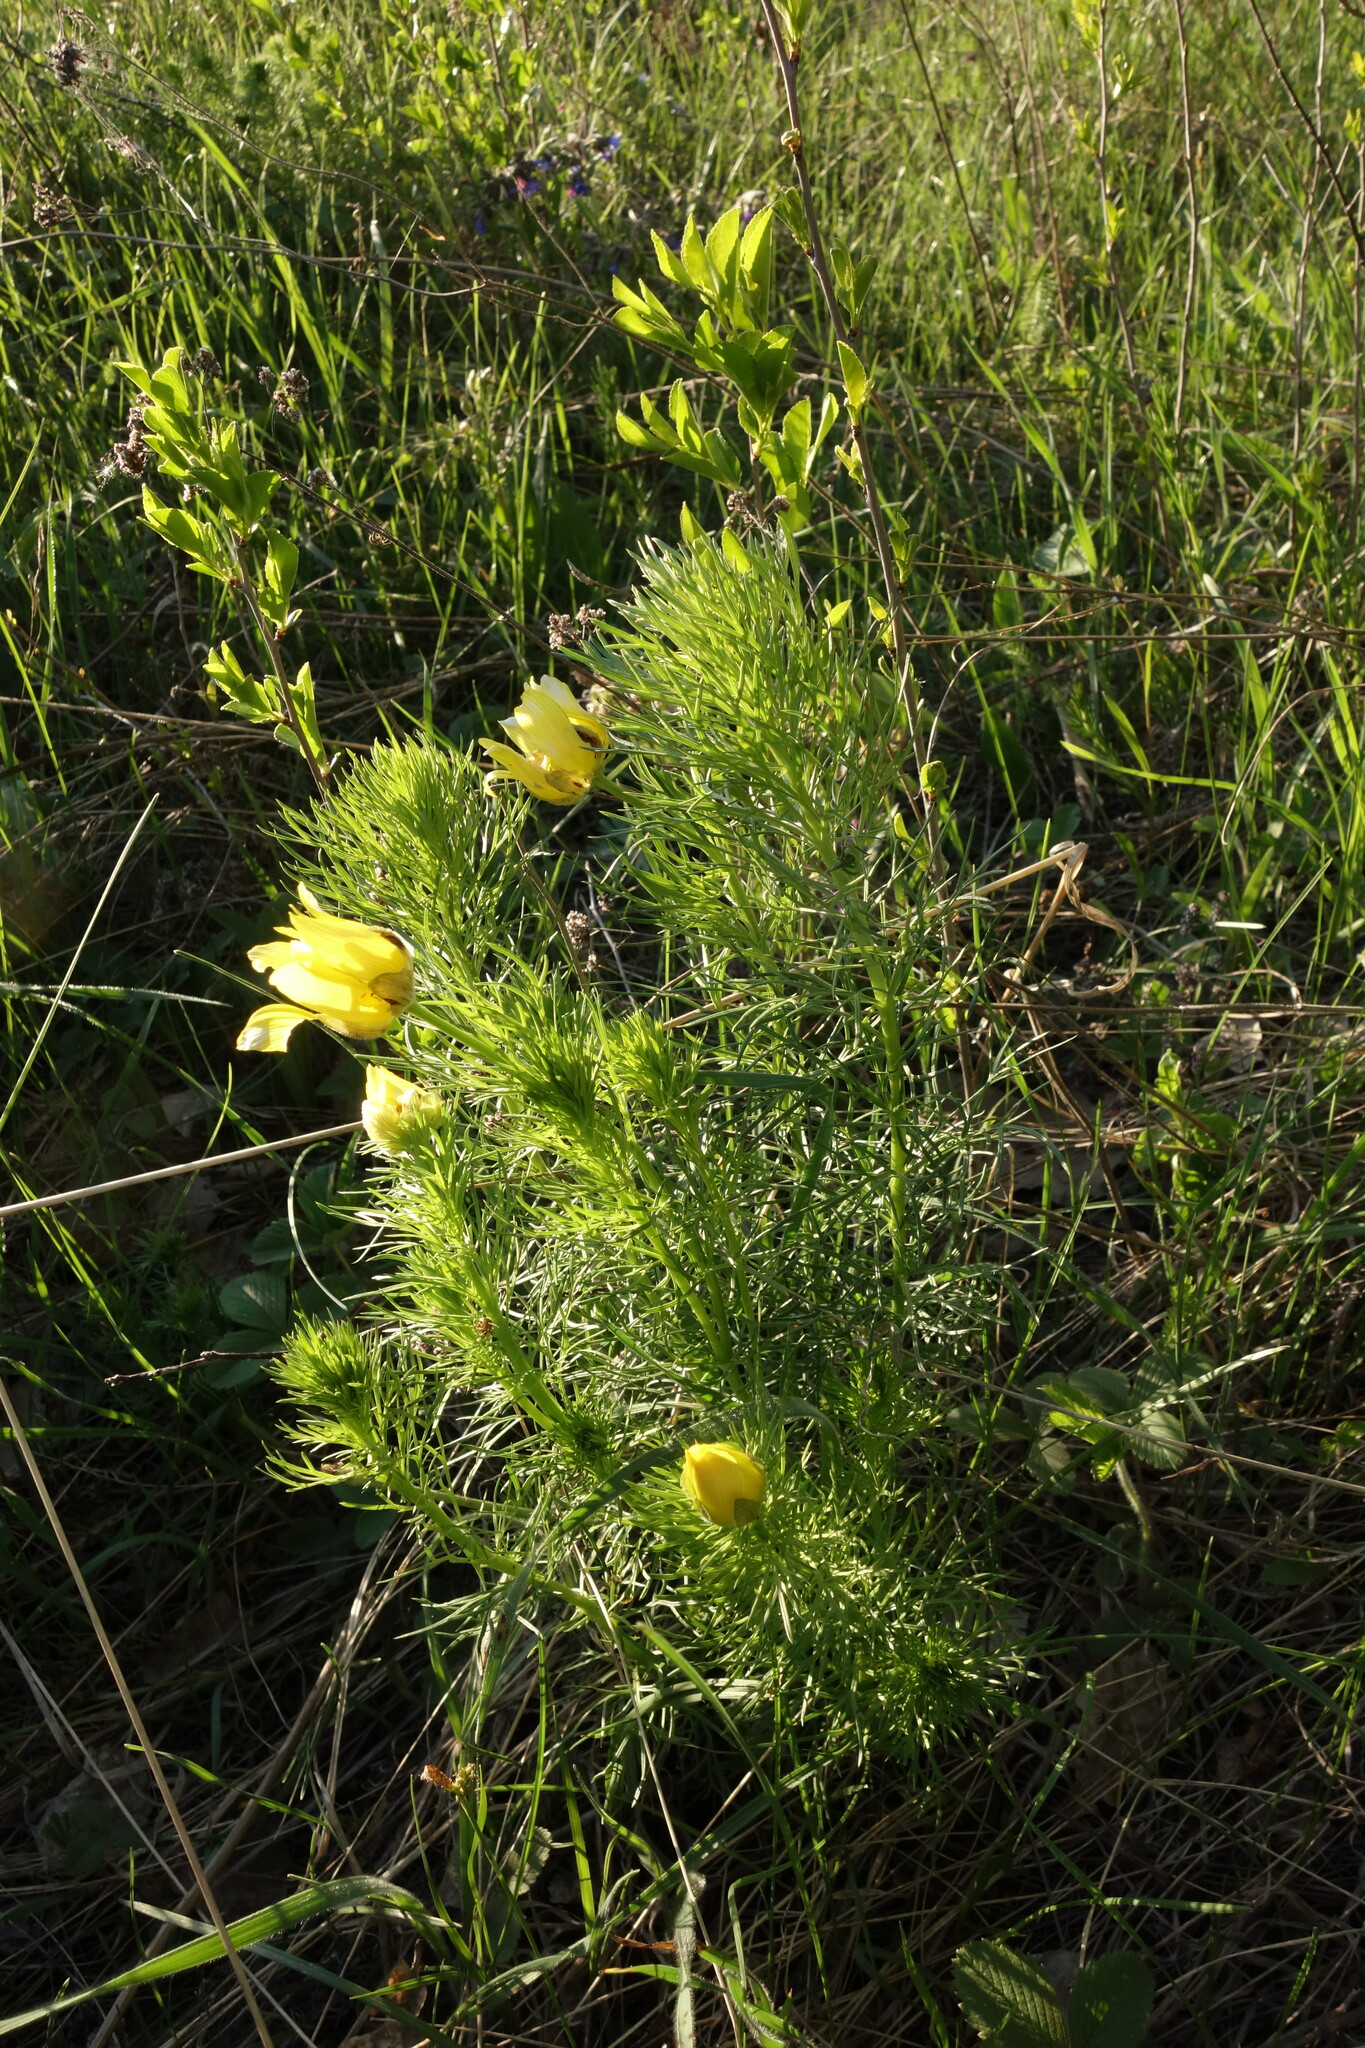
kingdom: Plantae
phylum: Tracheophyta
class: Magnoliopsida
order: Ranunculales
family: Ranunculaceae
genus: Adonis
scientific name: Adonis vernalis
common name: Yellow pheasants-eye
